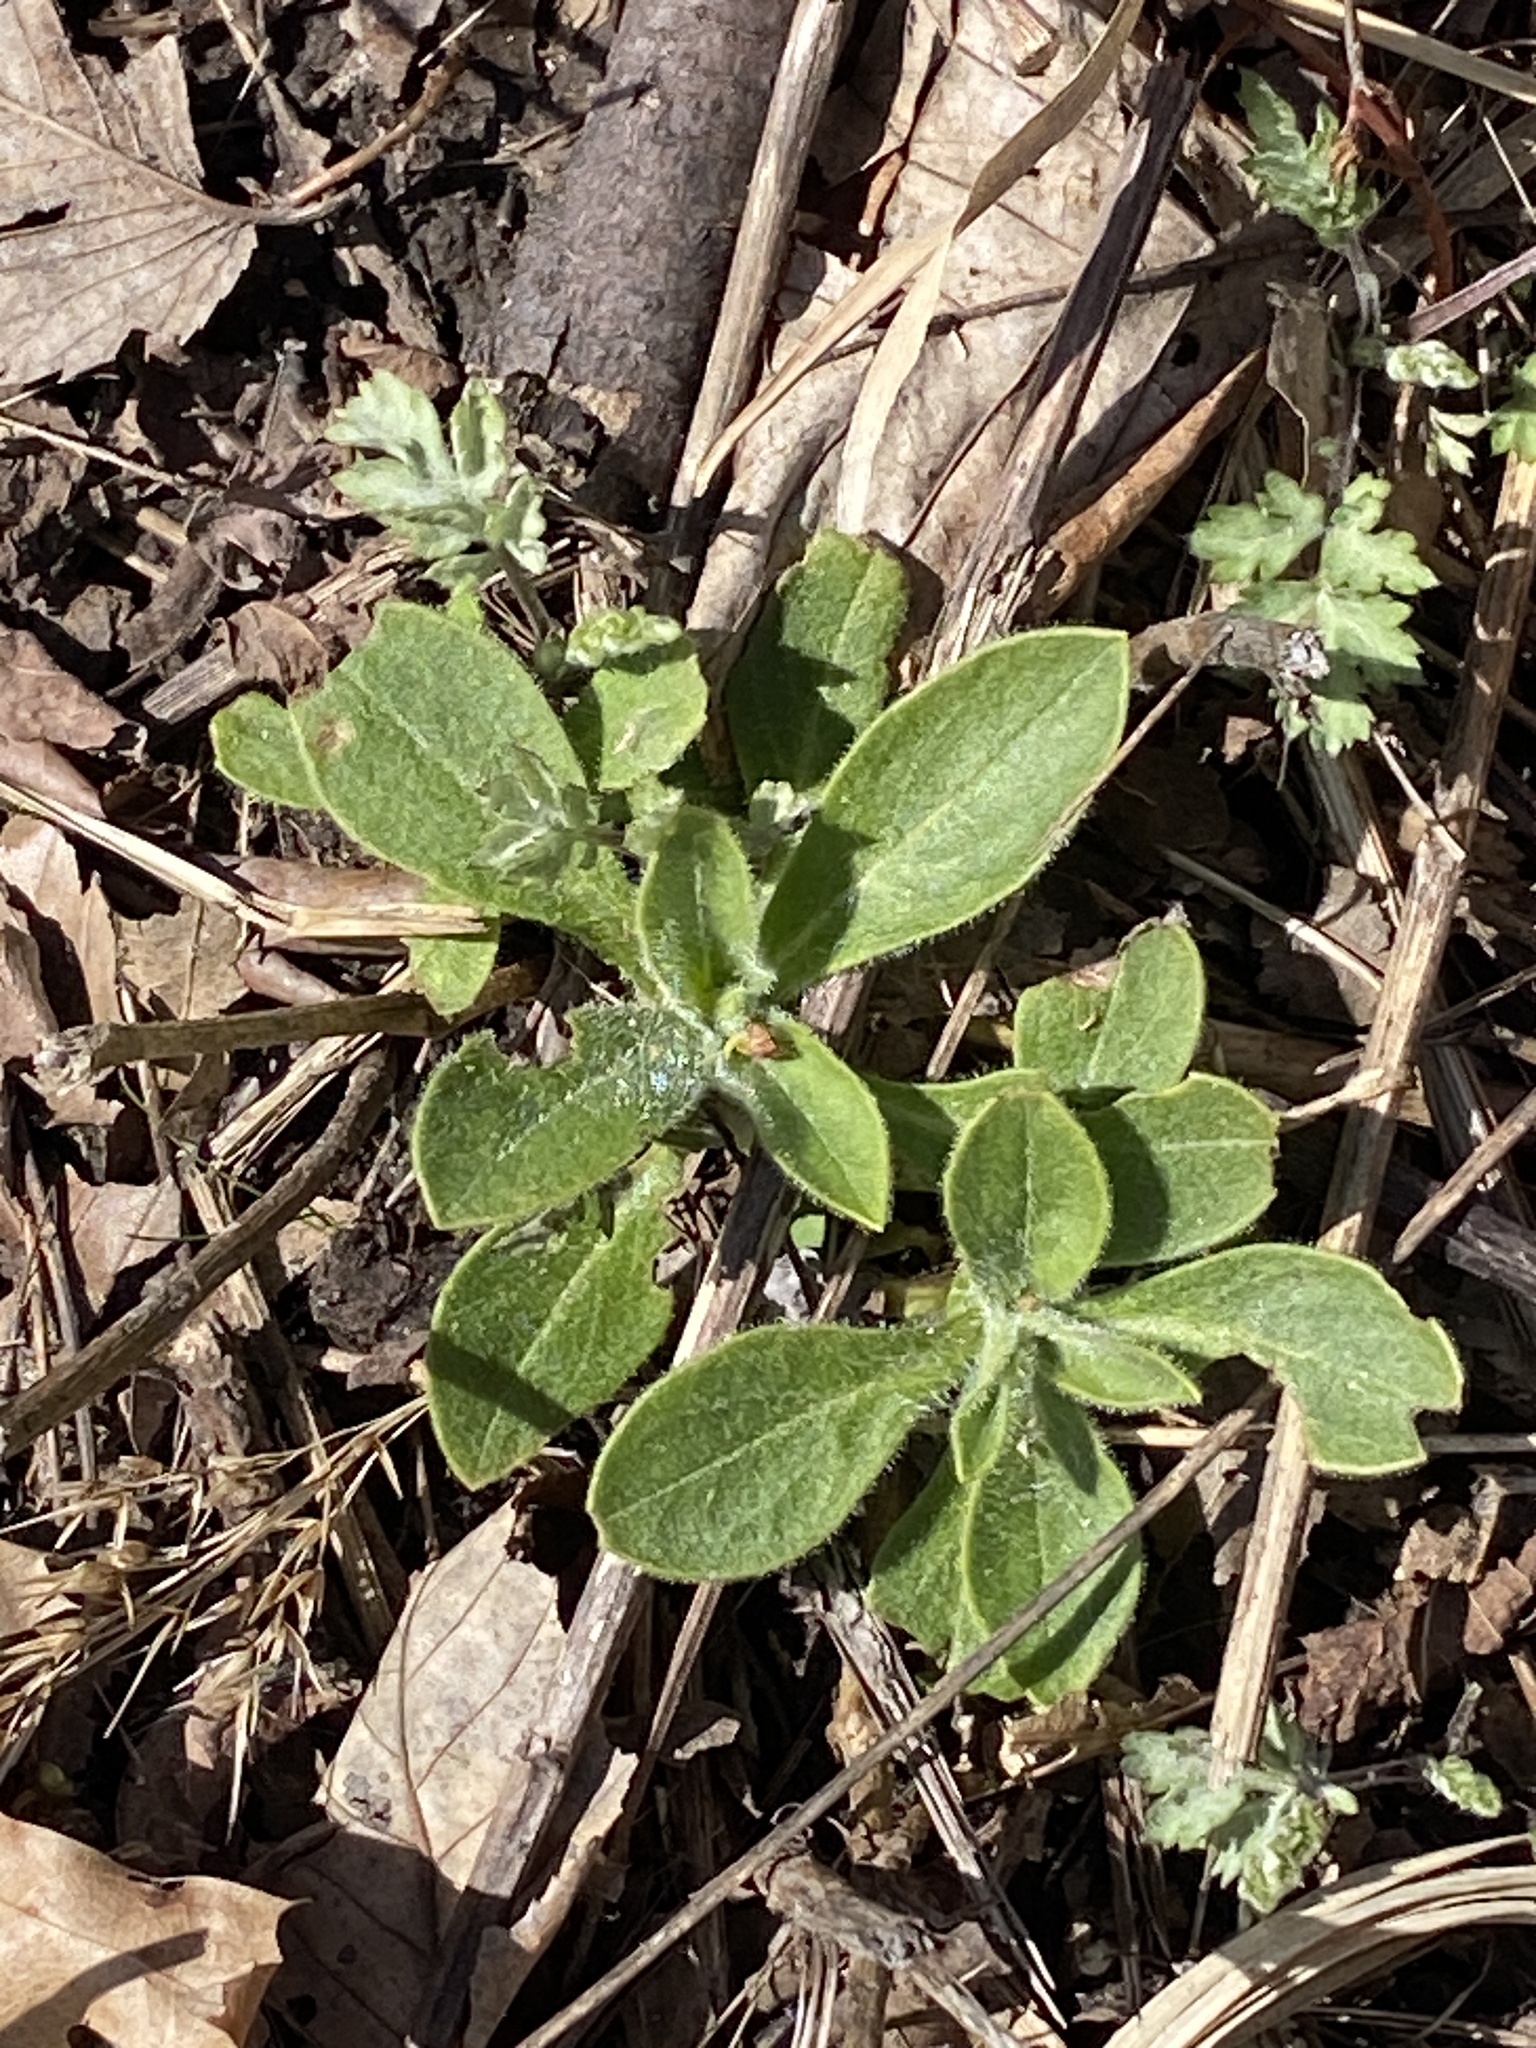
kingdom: Plantae
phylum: Tracheophyta
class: Magnoliopsida
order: Caryophyllales
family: Caryophyllaceae
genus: Silene
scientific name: Silene latifolia
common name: White campion
